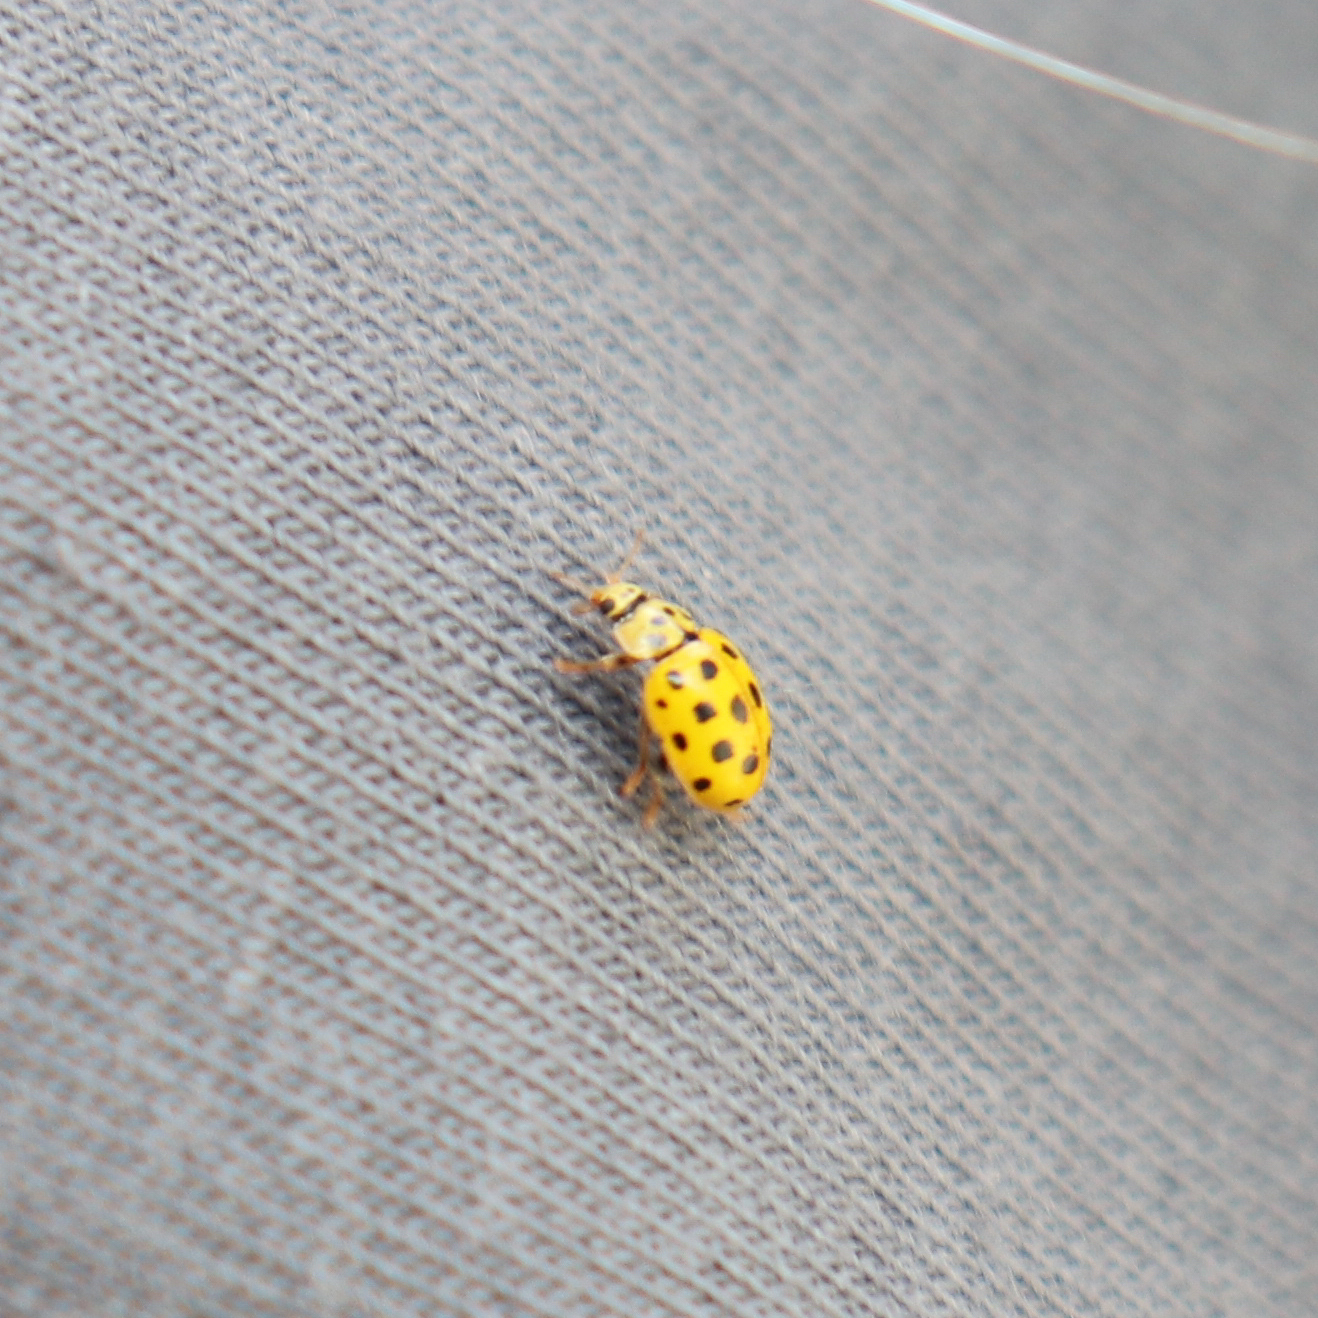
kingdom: Animalia
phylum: Arthropoda
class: Insecta
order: Coleoptera
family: Coccinellidae
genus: Psyllobora
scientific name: Psyllobora vigintiduopunctata
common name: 22-spot ladybird
